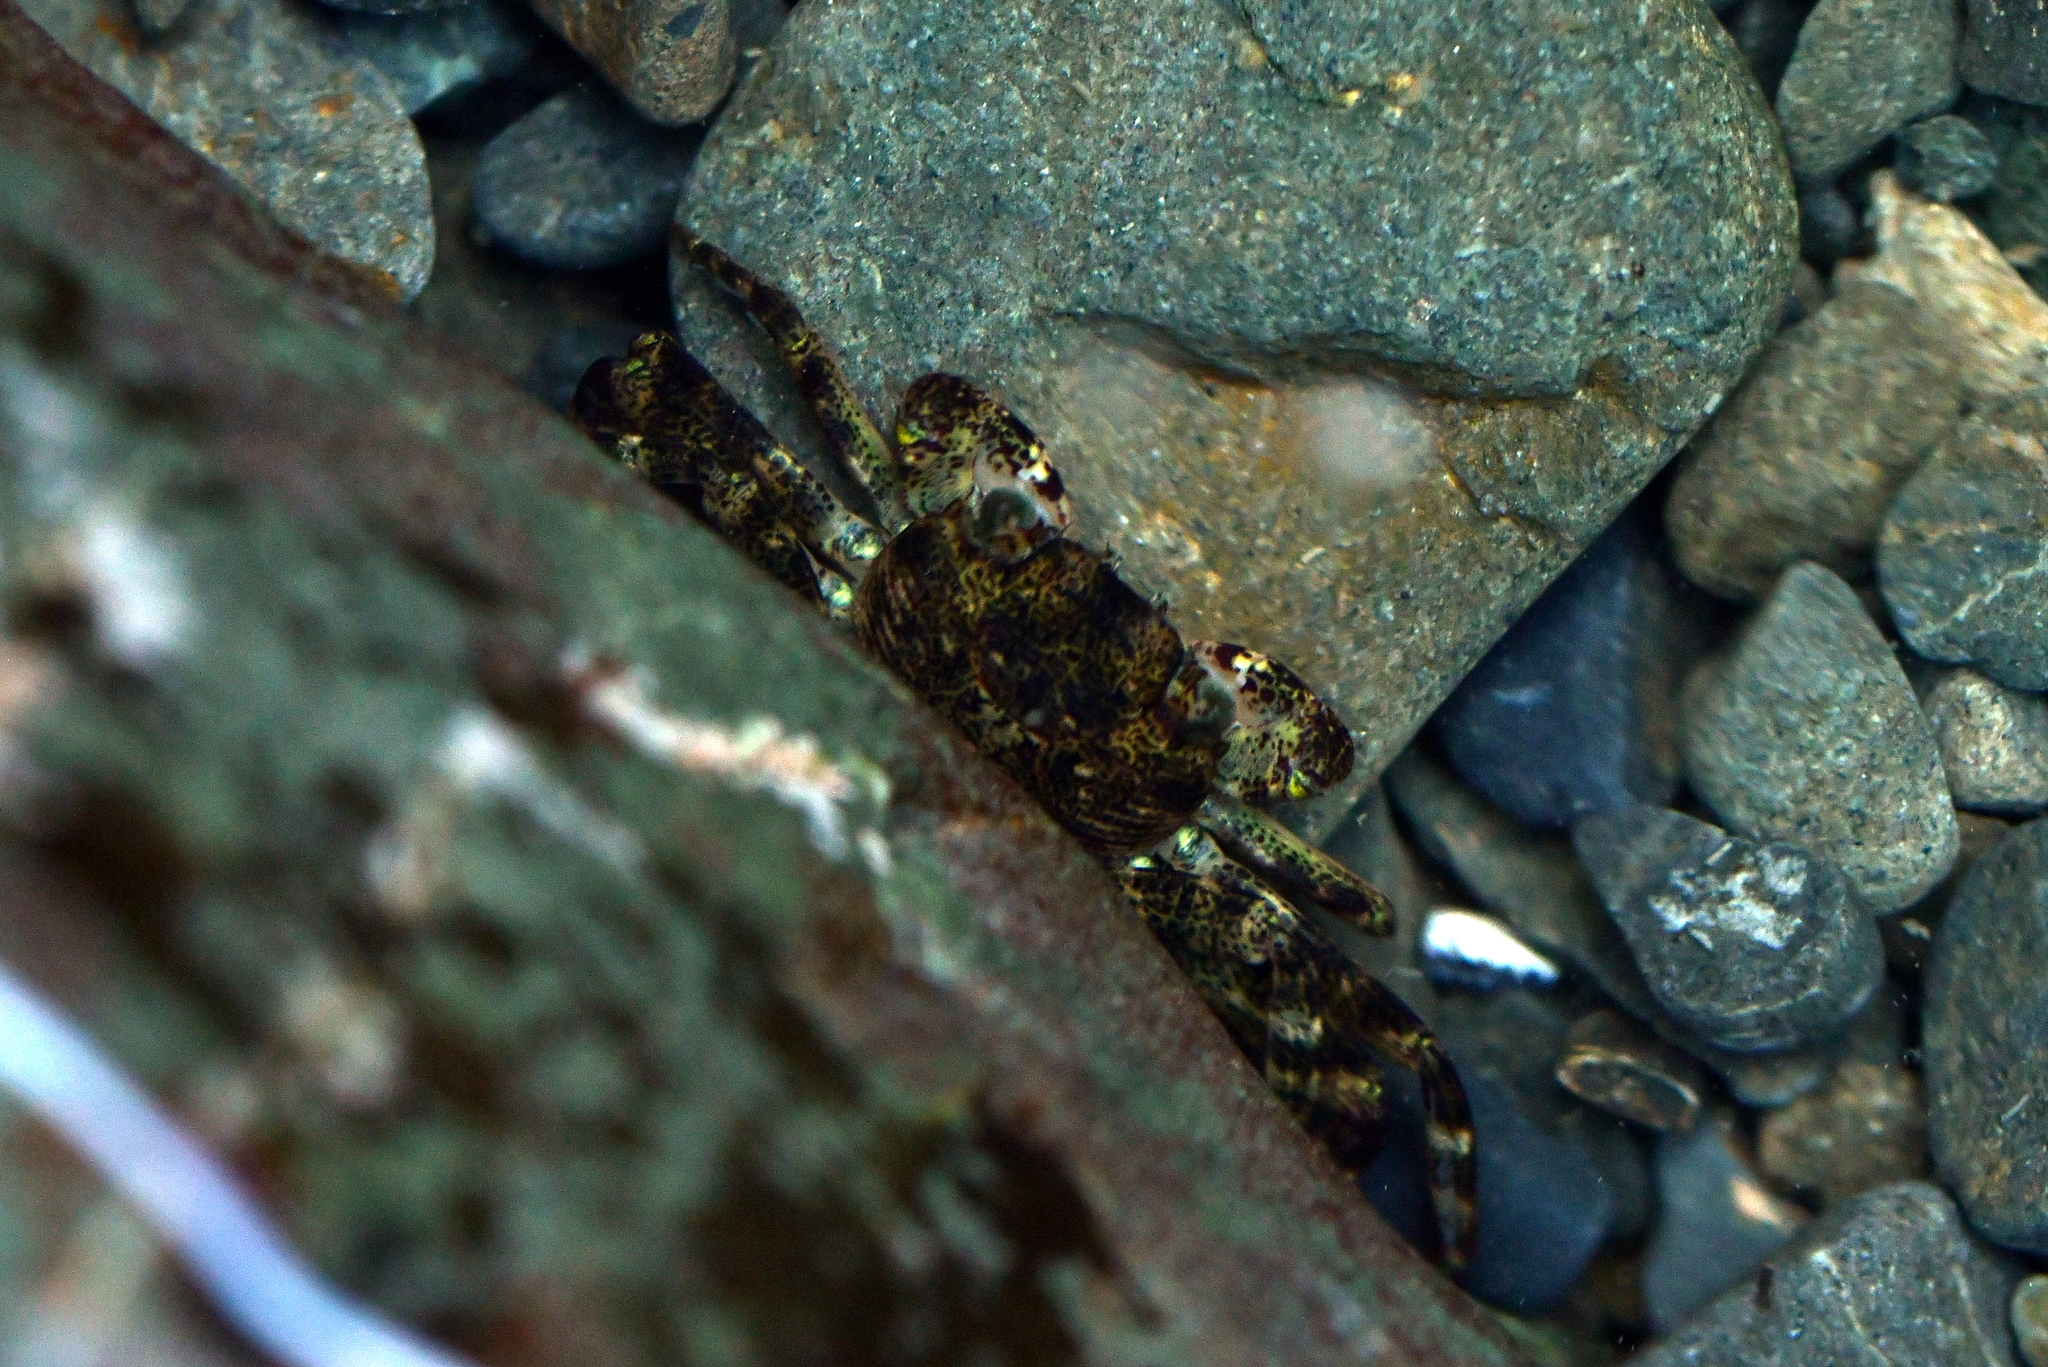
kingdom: Animalia
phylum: Arthropoda
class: Malacostraca
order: Decapoda
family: Grapsidae
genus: Leptograpsus
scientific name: Leptograpsus variegatus
